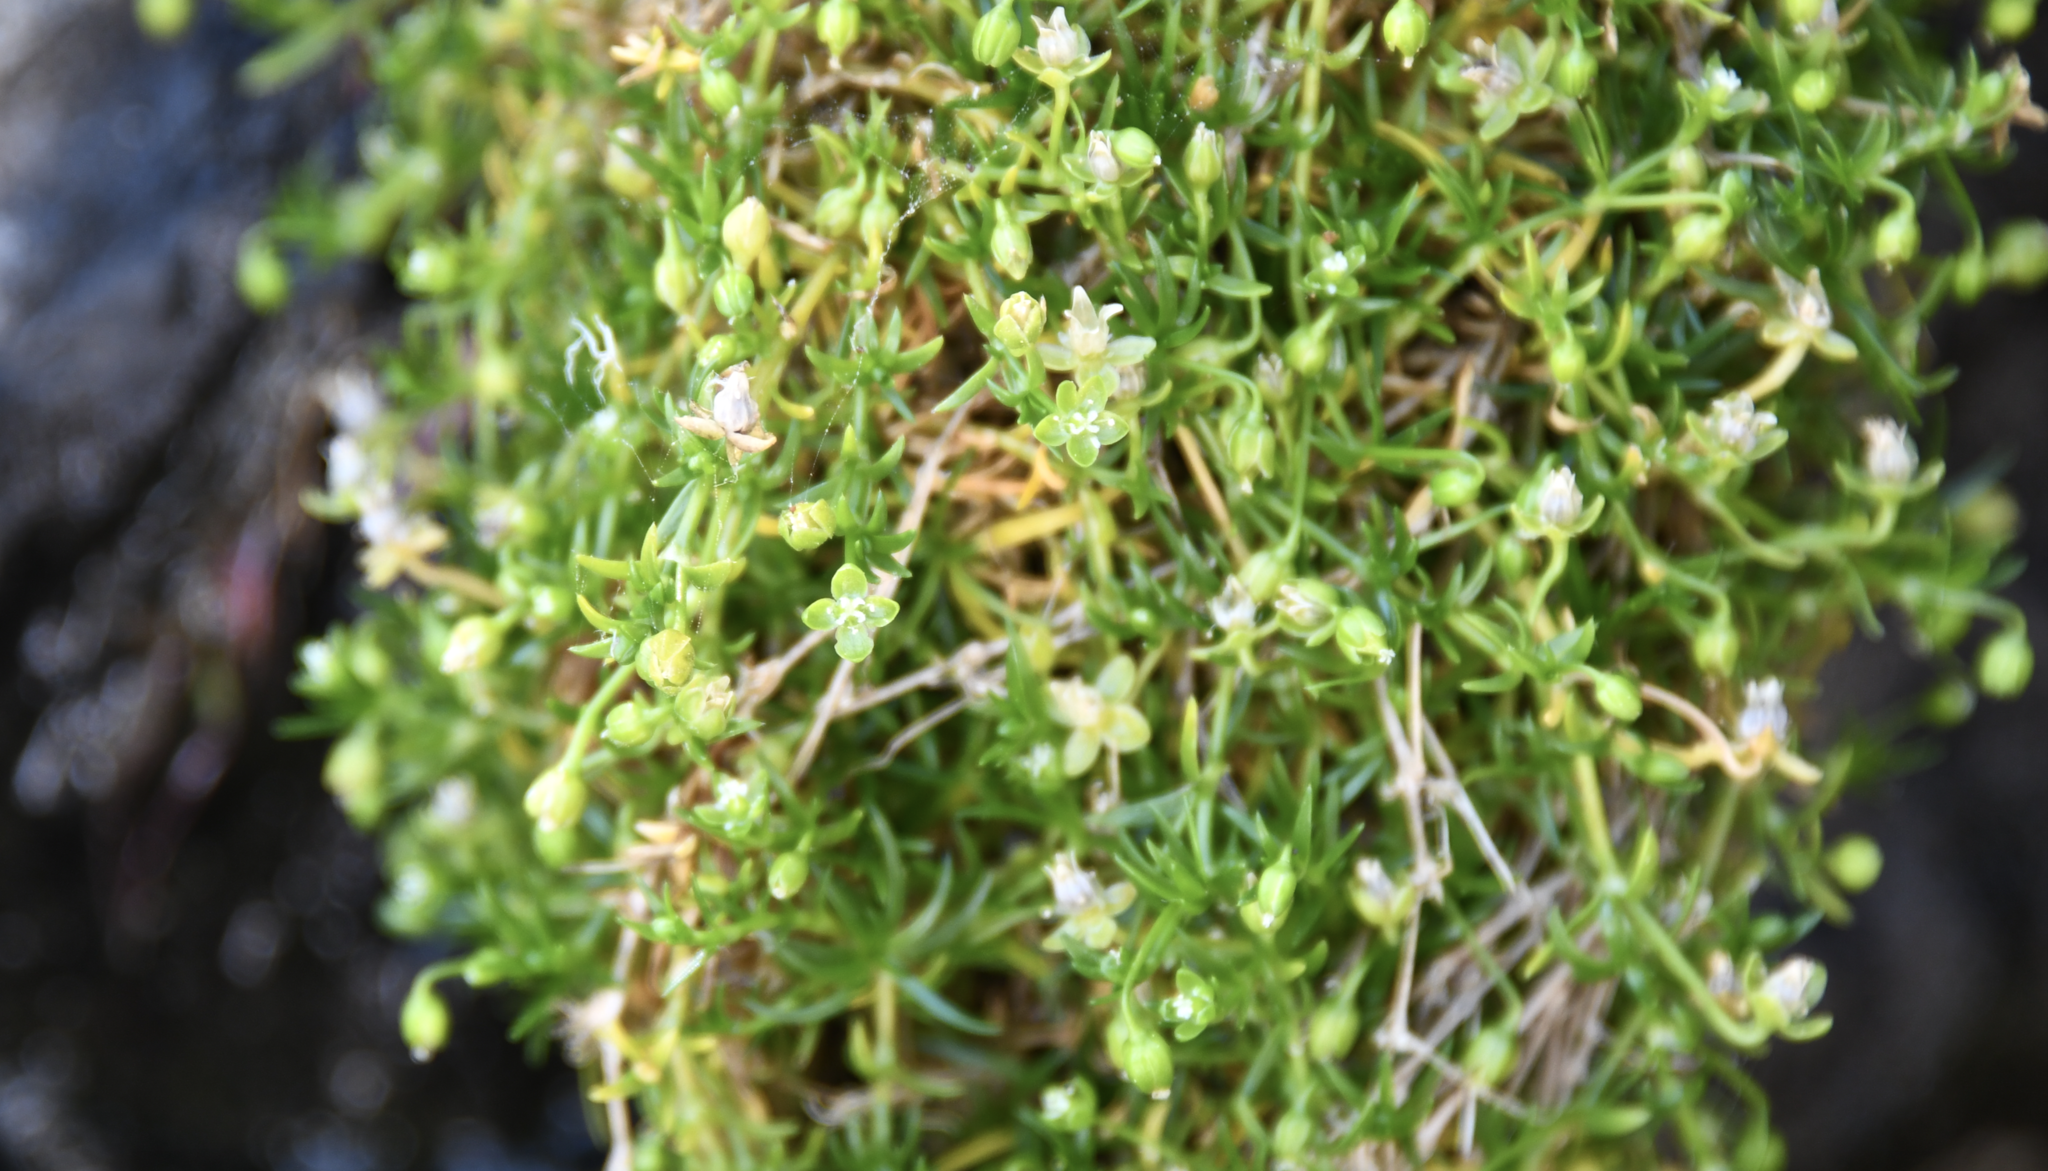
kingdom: Plantae
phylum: Tracheophyta
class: Magnoliopsida
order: Caryophyllales
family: Caryophyllaceae
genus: Sagina
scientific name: Sagina procumbens
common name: Procumbent pearlwort
